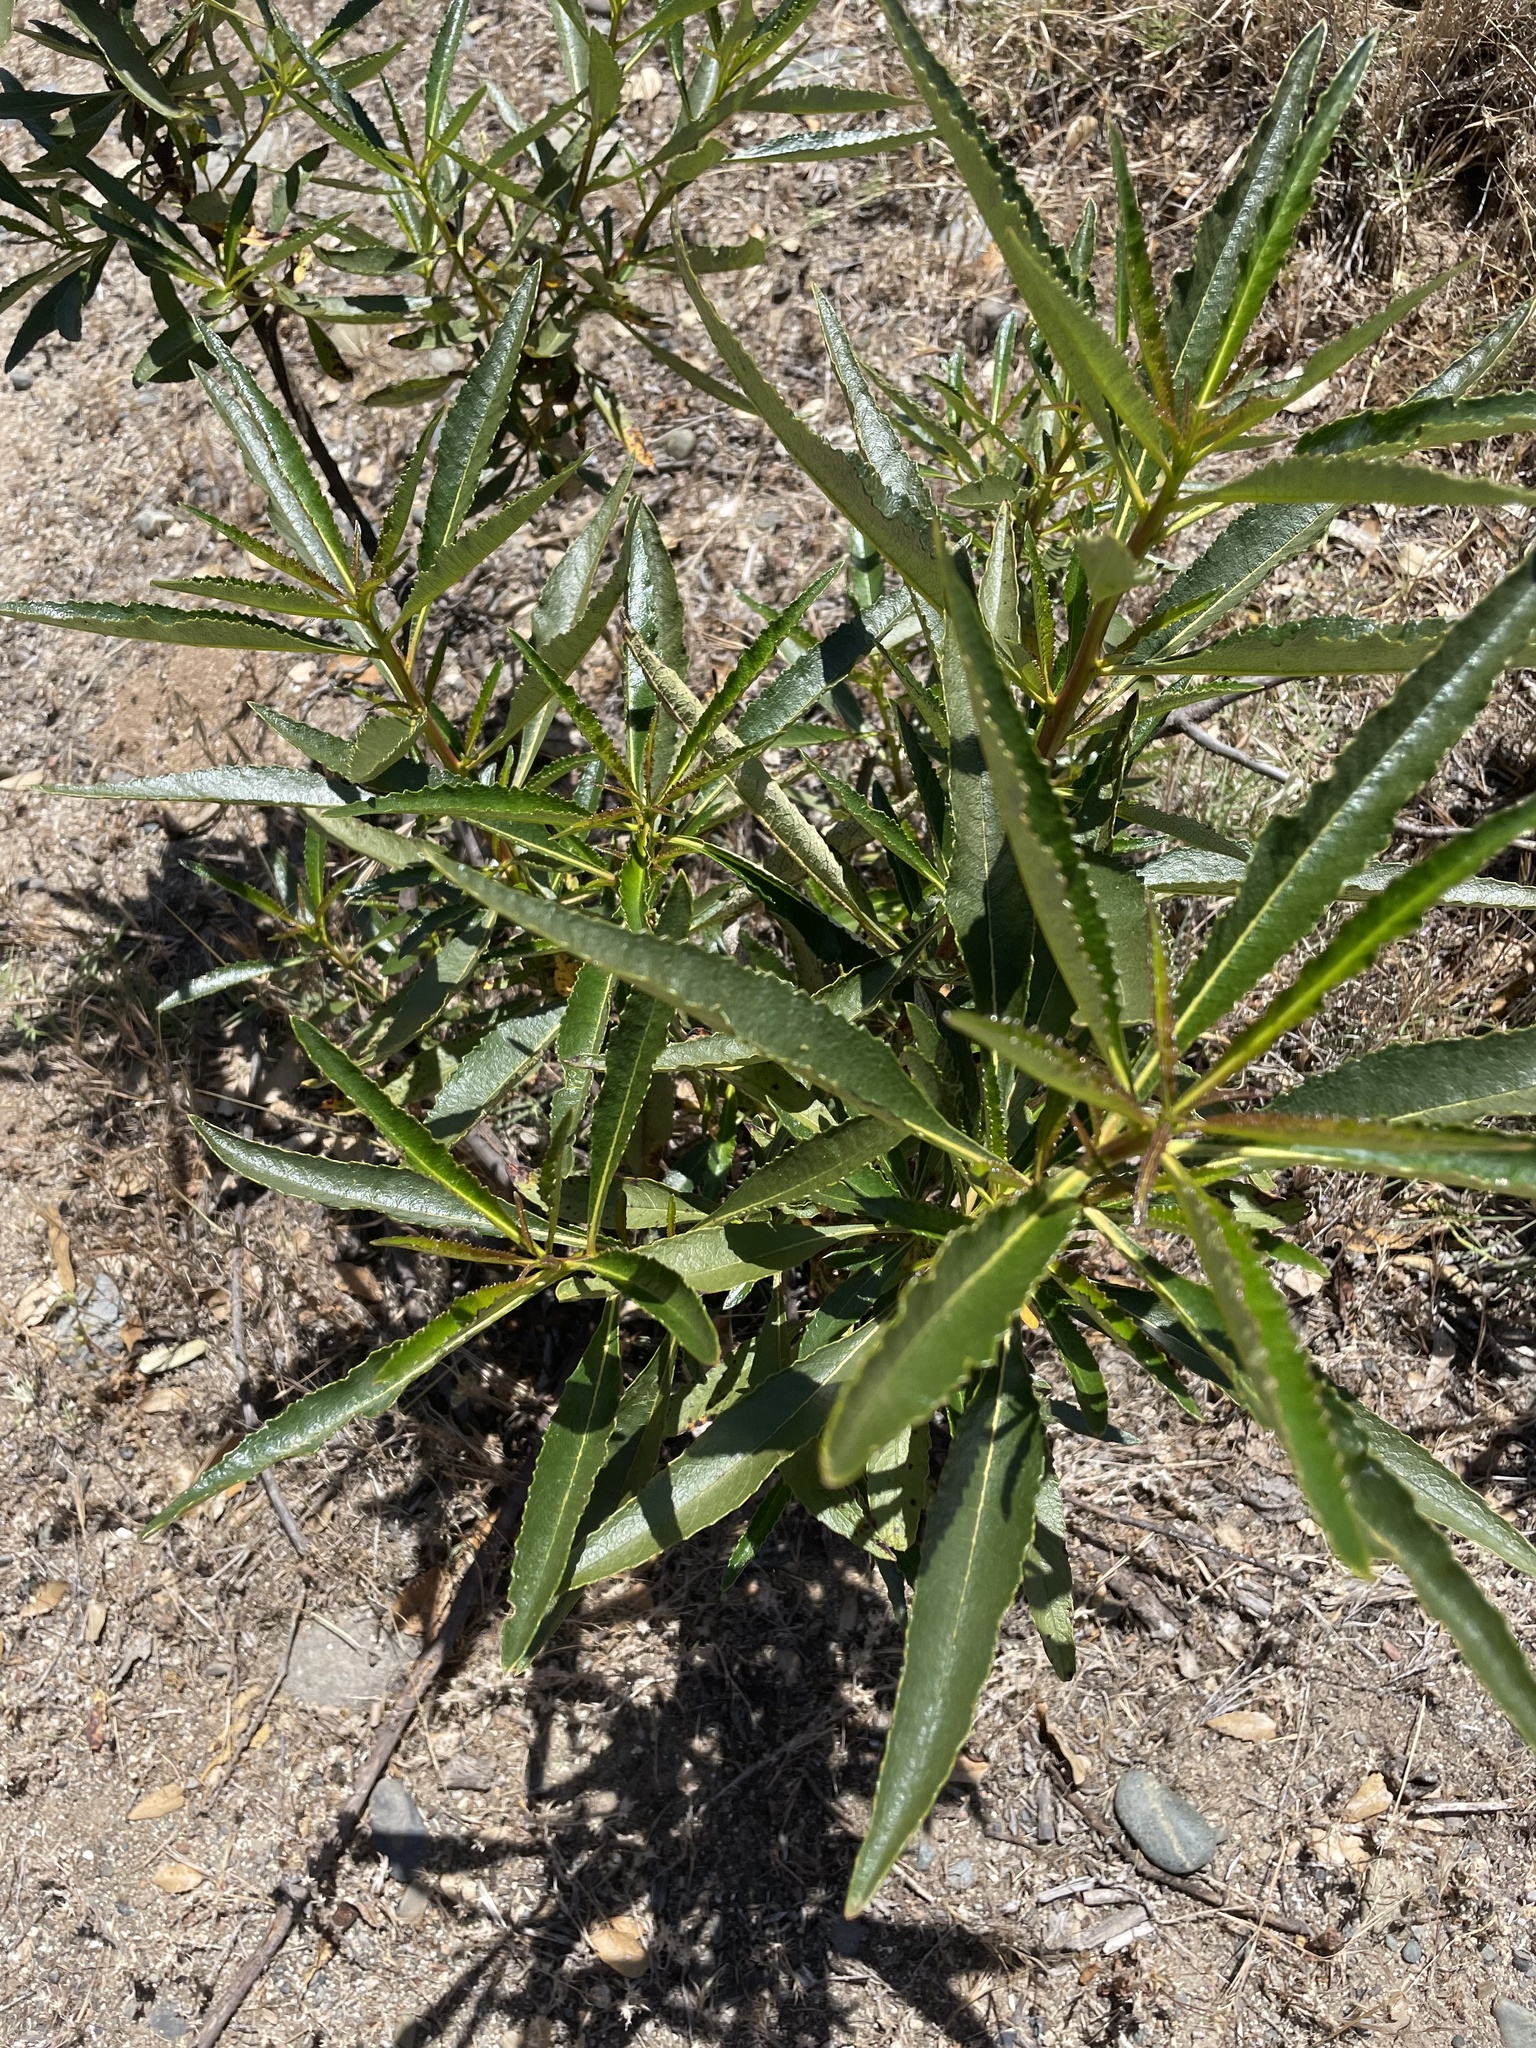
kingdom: Plantae
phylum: Tracheophyta
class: Magnoliopsida
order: Boraginales
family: Namaceae
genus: Eriodictyon
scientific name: Eriodictyon californicum
